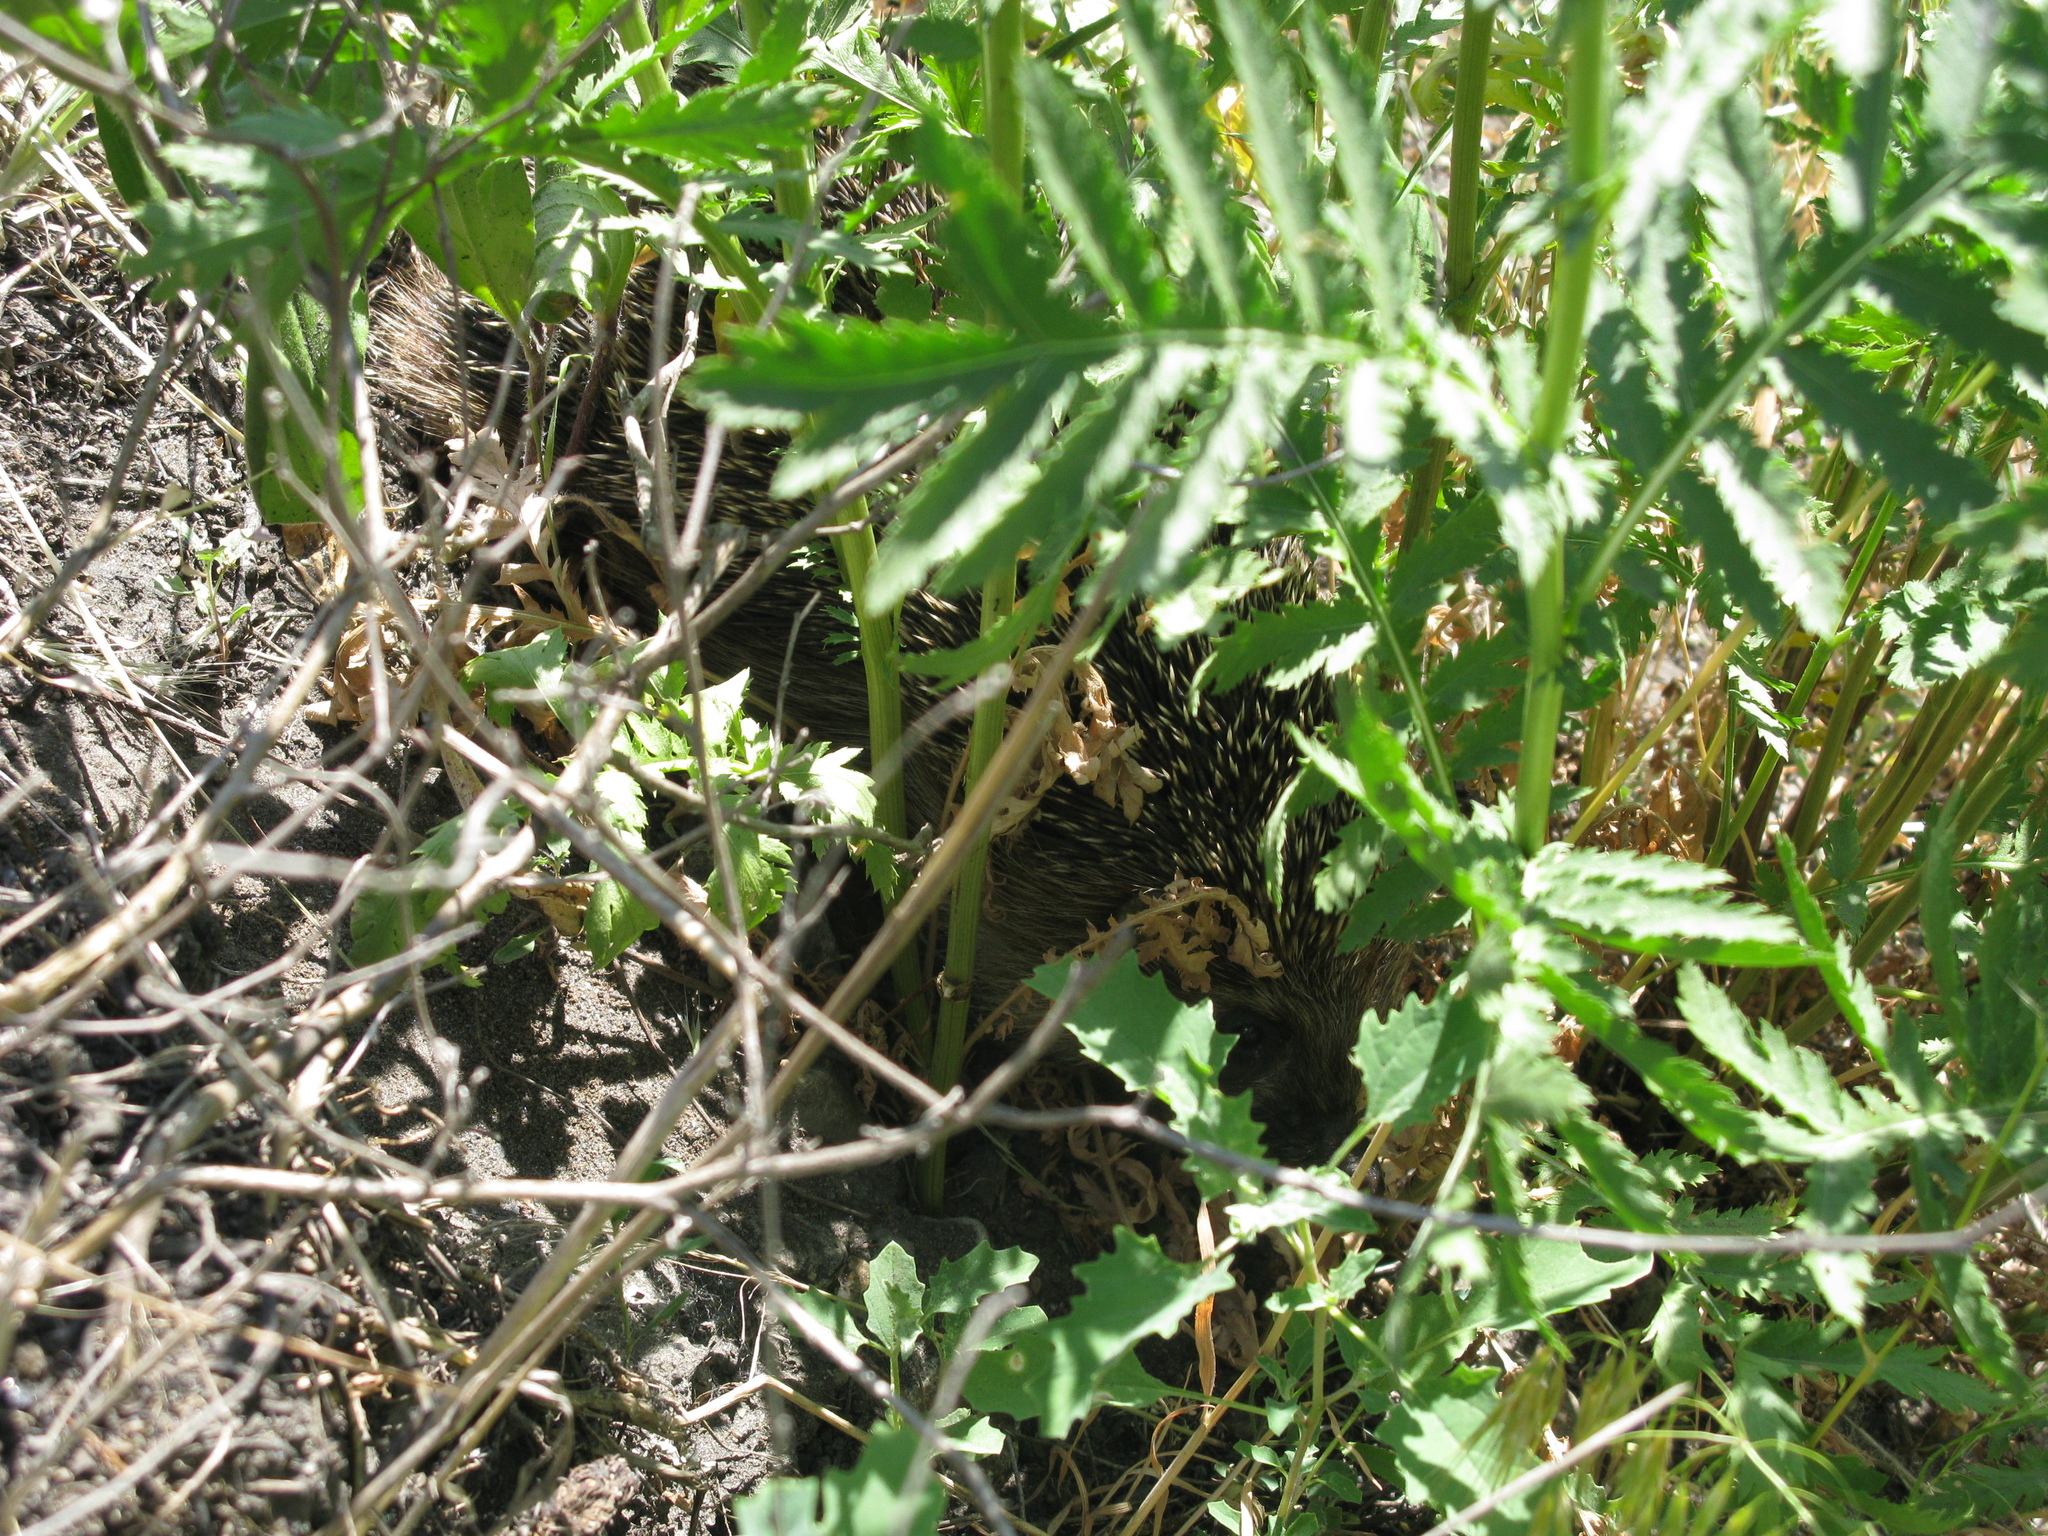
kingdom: Animalia
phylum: Chordata
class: Mammalia
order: Erinaceomorpha
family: Erinaceidae
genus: Erinaceus
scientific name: Erinaceus roumanicus
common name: Northern white-breasted hedgehog
